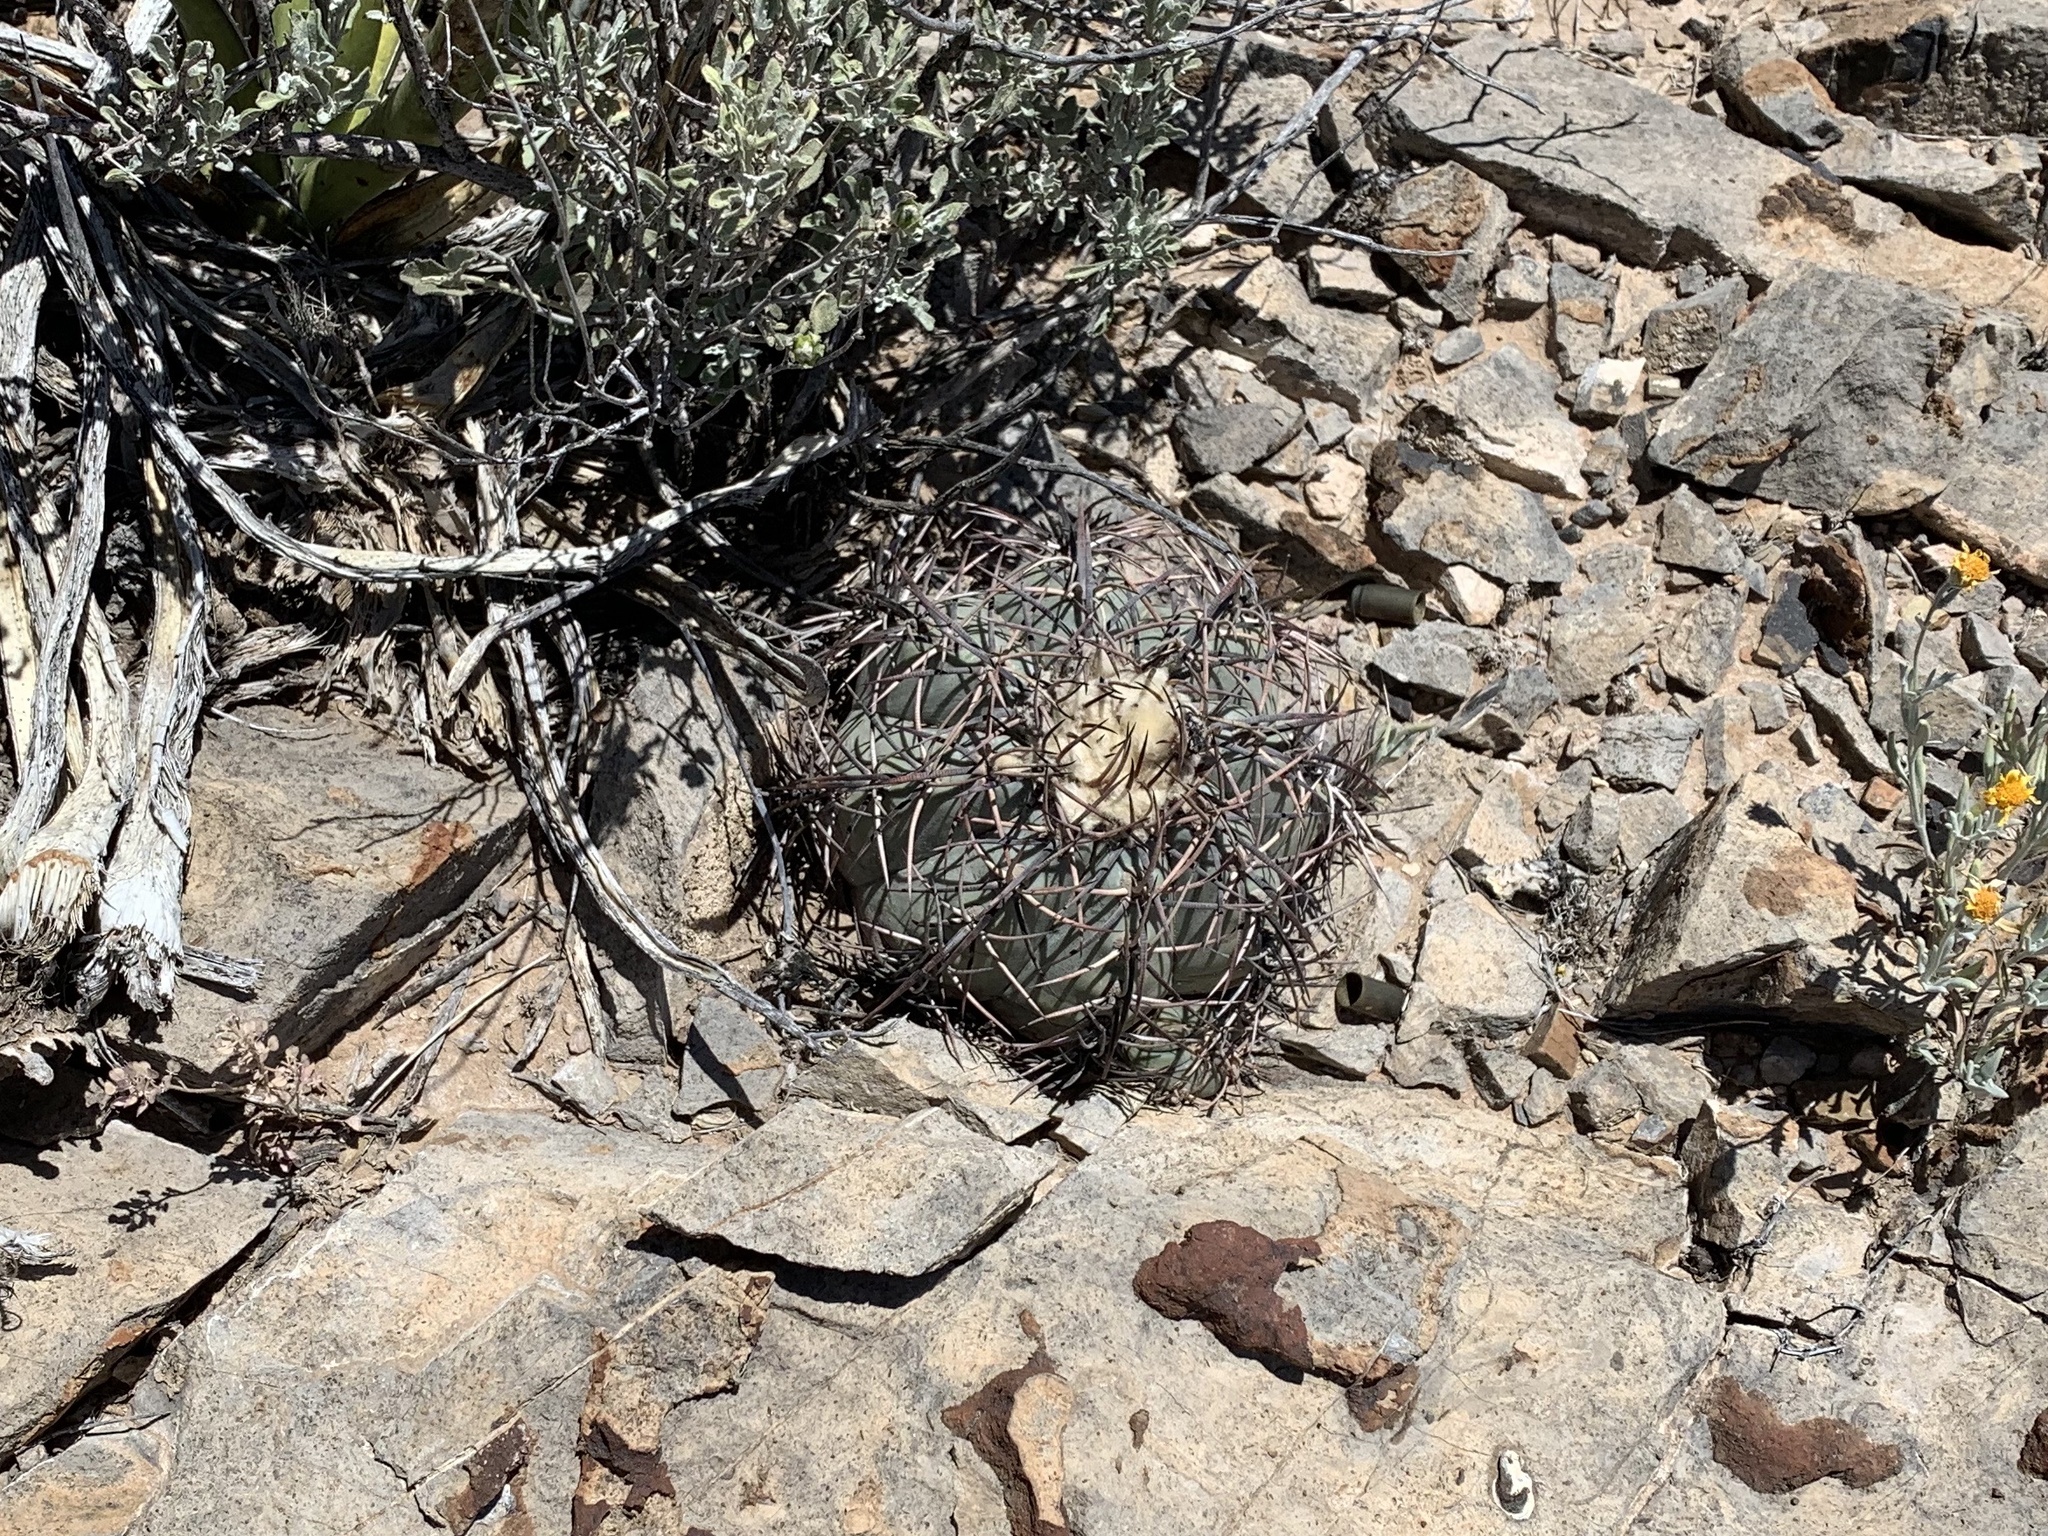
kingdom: Plantae
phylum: Tracheophyta
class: Magnoliopsida
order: Caryophyllales
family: Cactaceae
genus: Echinocactus
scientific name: Echinocactus horizonthalonius
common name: Devilshead
